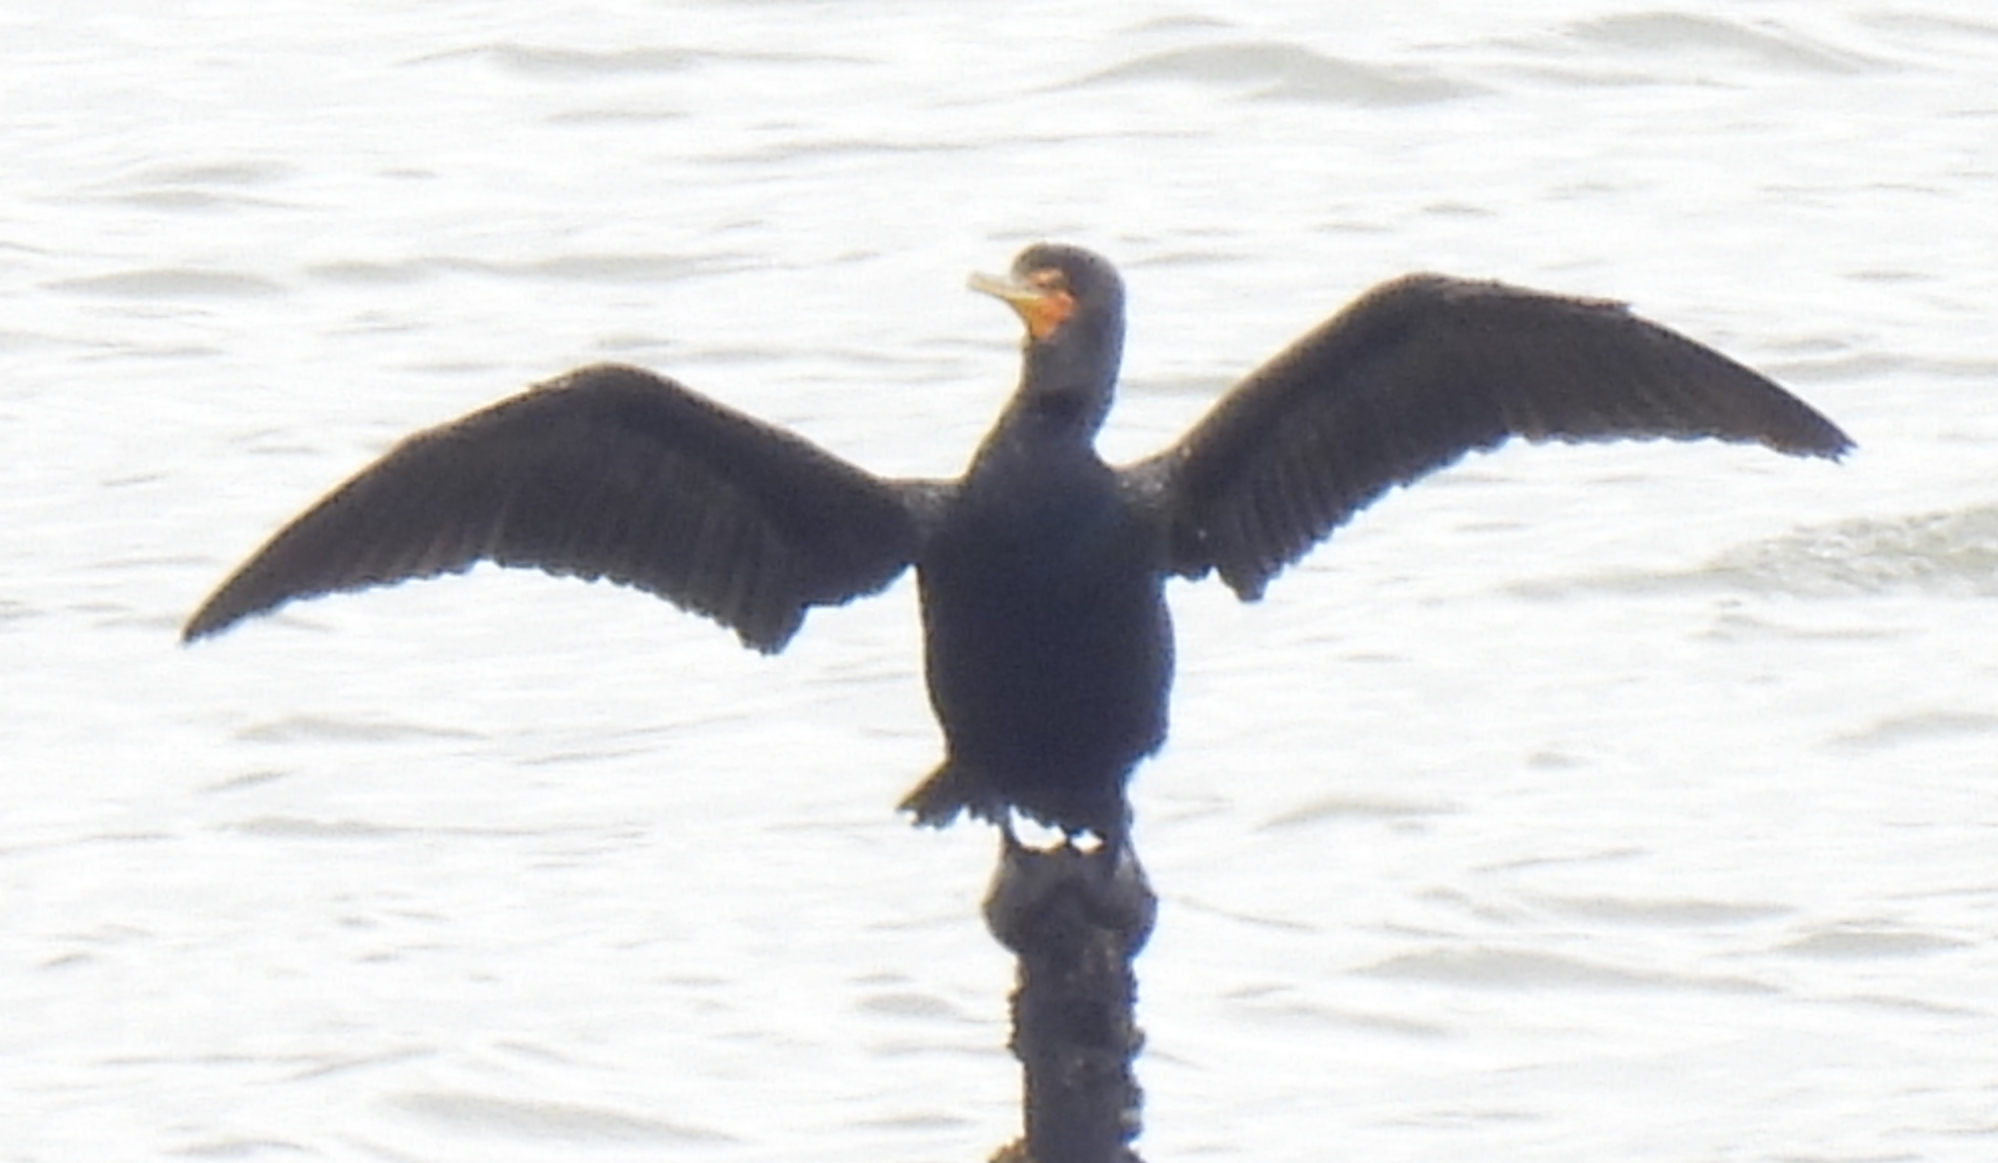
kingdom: Animalia
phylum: Chordata
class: Aves
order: Suliformes
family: Phalacrocoracidae
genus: Phalacrocorax
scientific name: Phalacrocorax auritus
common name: Double-crested cormorant
